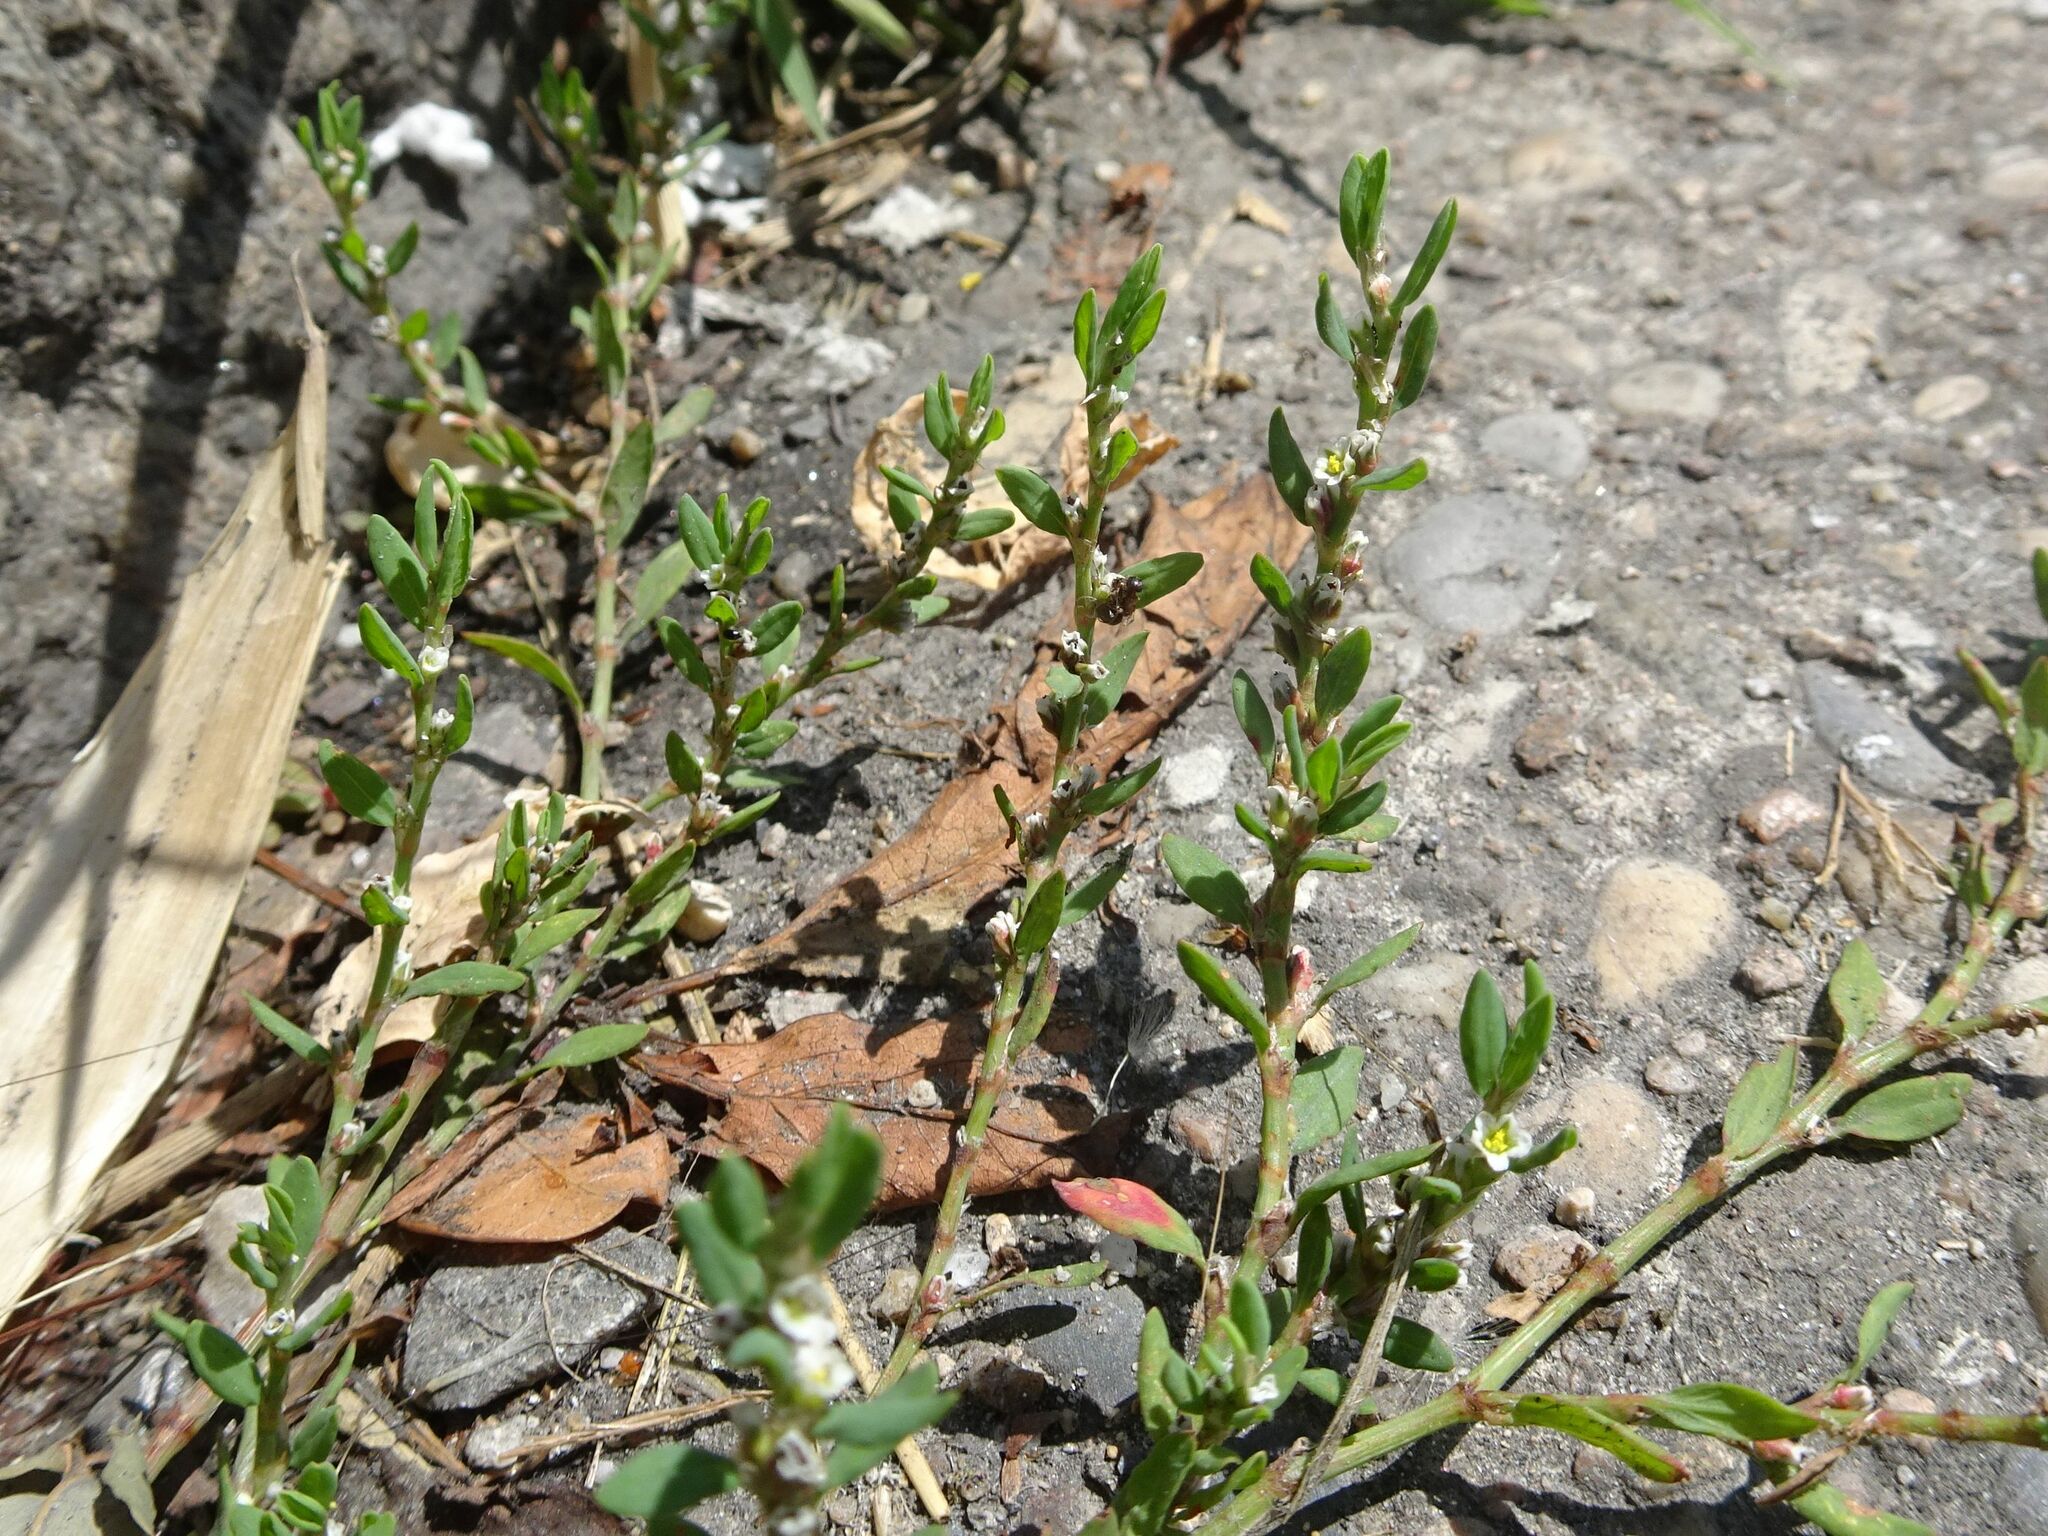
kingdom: Plantae
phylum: Tracheophyta
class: Magnoliopsida
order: Caryophyllales
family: Polygonaceae
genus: Polygonum
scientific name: Polygonum aviculare
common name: Prostrate knotweed
